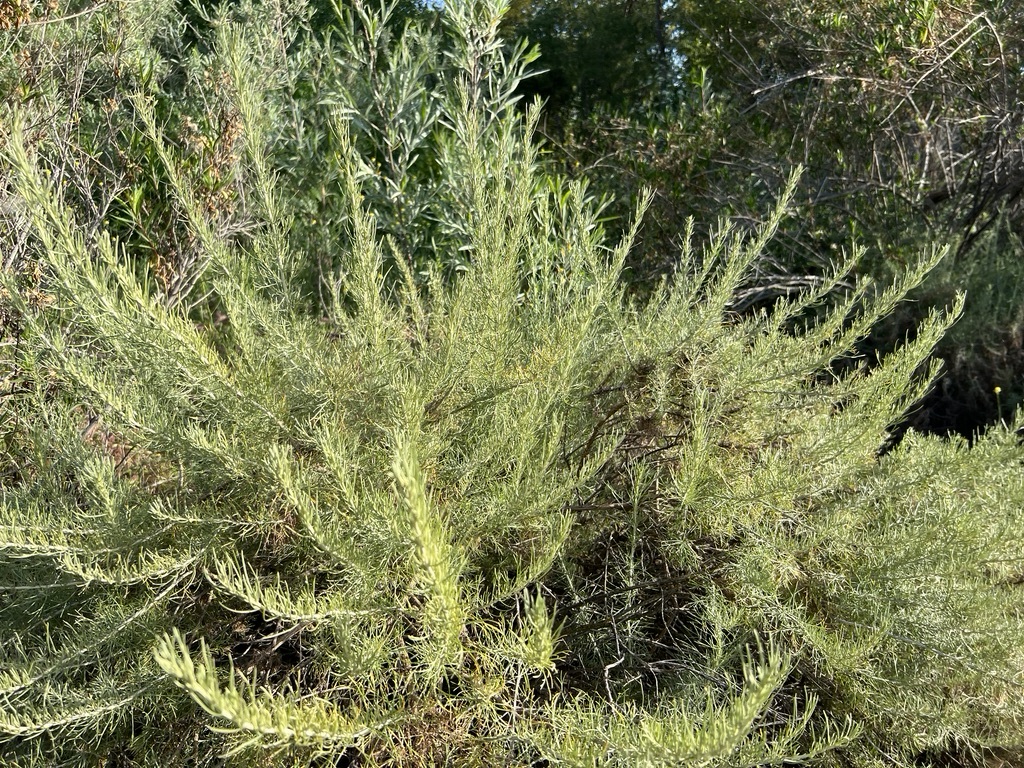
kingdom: Plantae
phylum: Tracheophyta
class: Magnoliopsida
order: Asterales
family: Asteraceae
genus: Artemisia
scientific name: Artemisia californica
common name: California sagebrush
